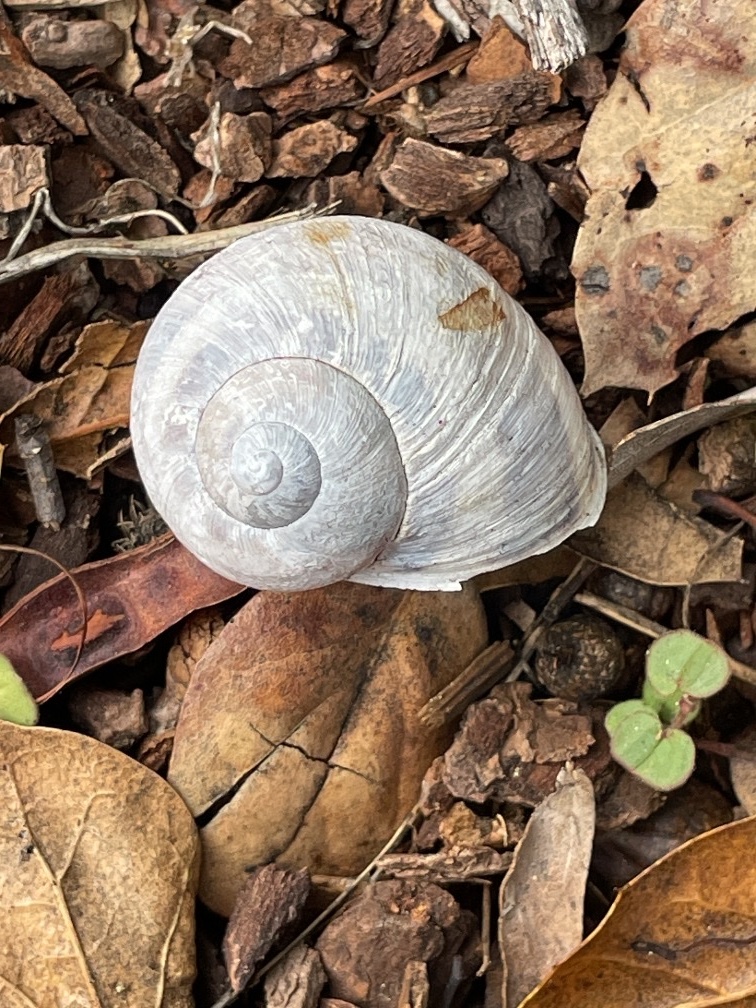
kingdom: Animalia
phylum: Mollusca
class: Gastropoda
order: Stylommatophora
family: Helicidae
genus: Cornu
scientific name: Cornu aspersum
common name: Brown garden snail
